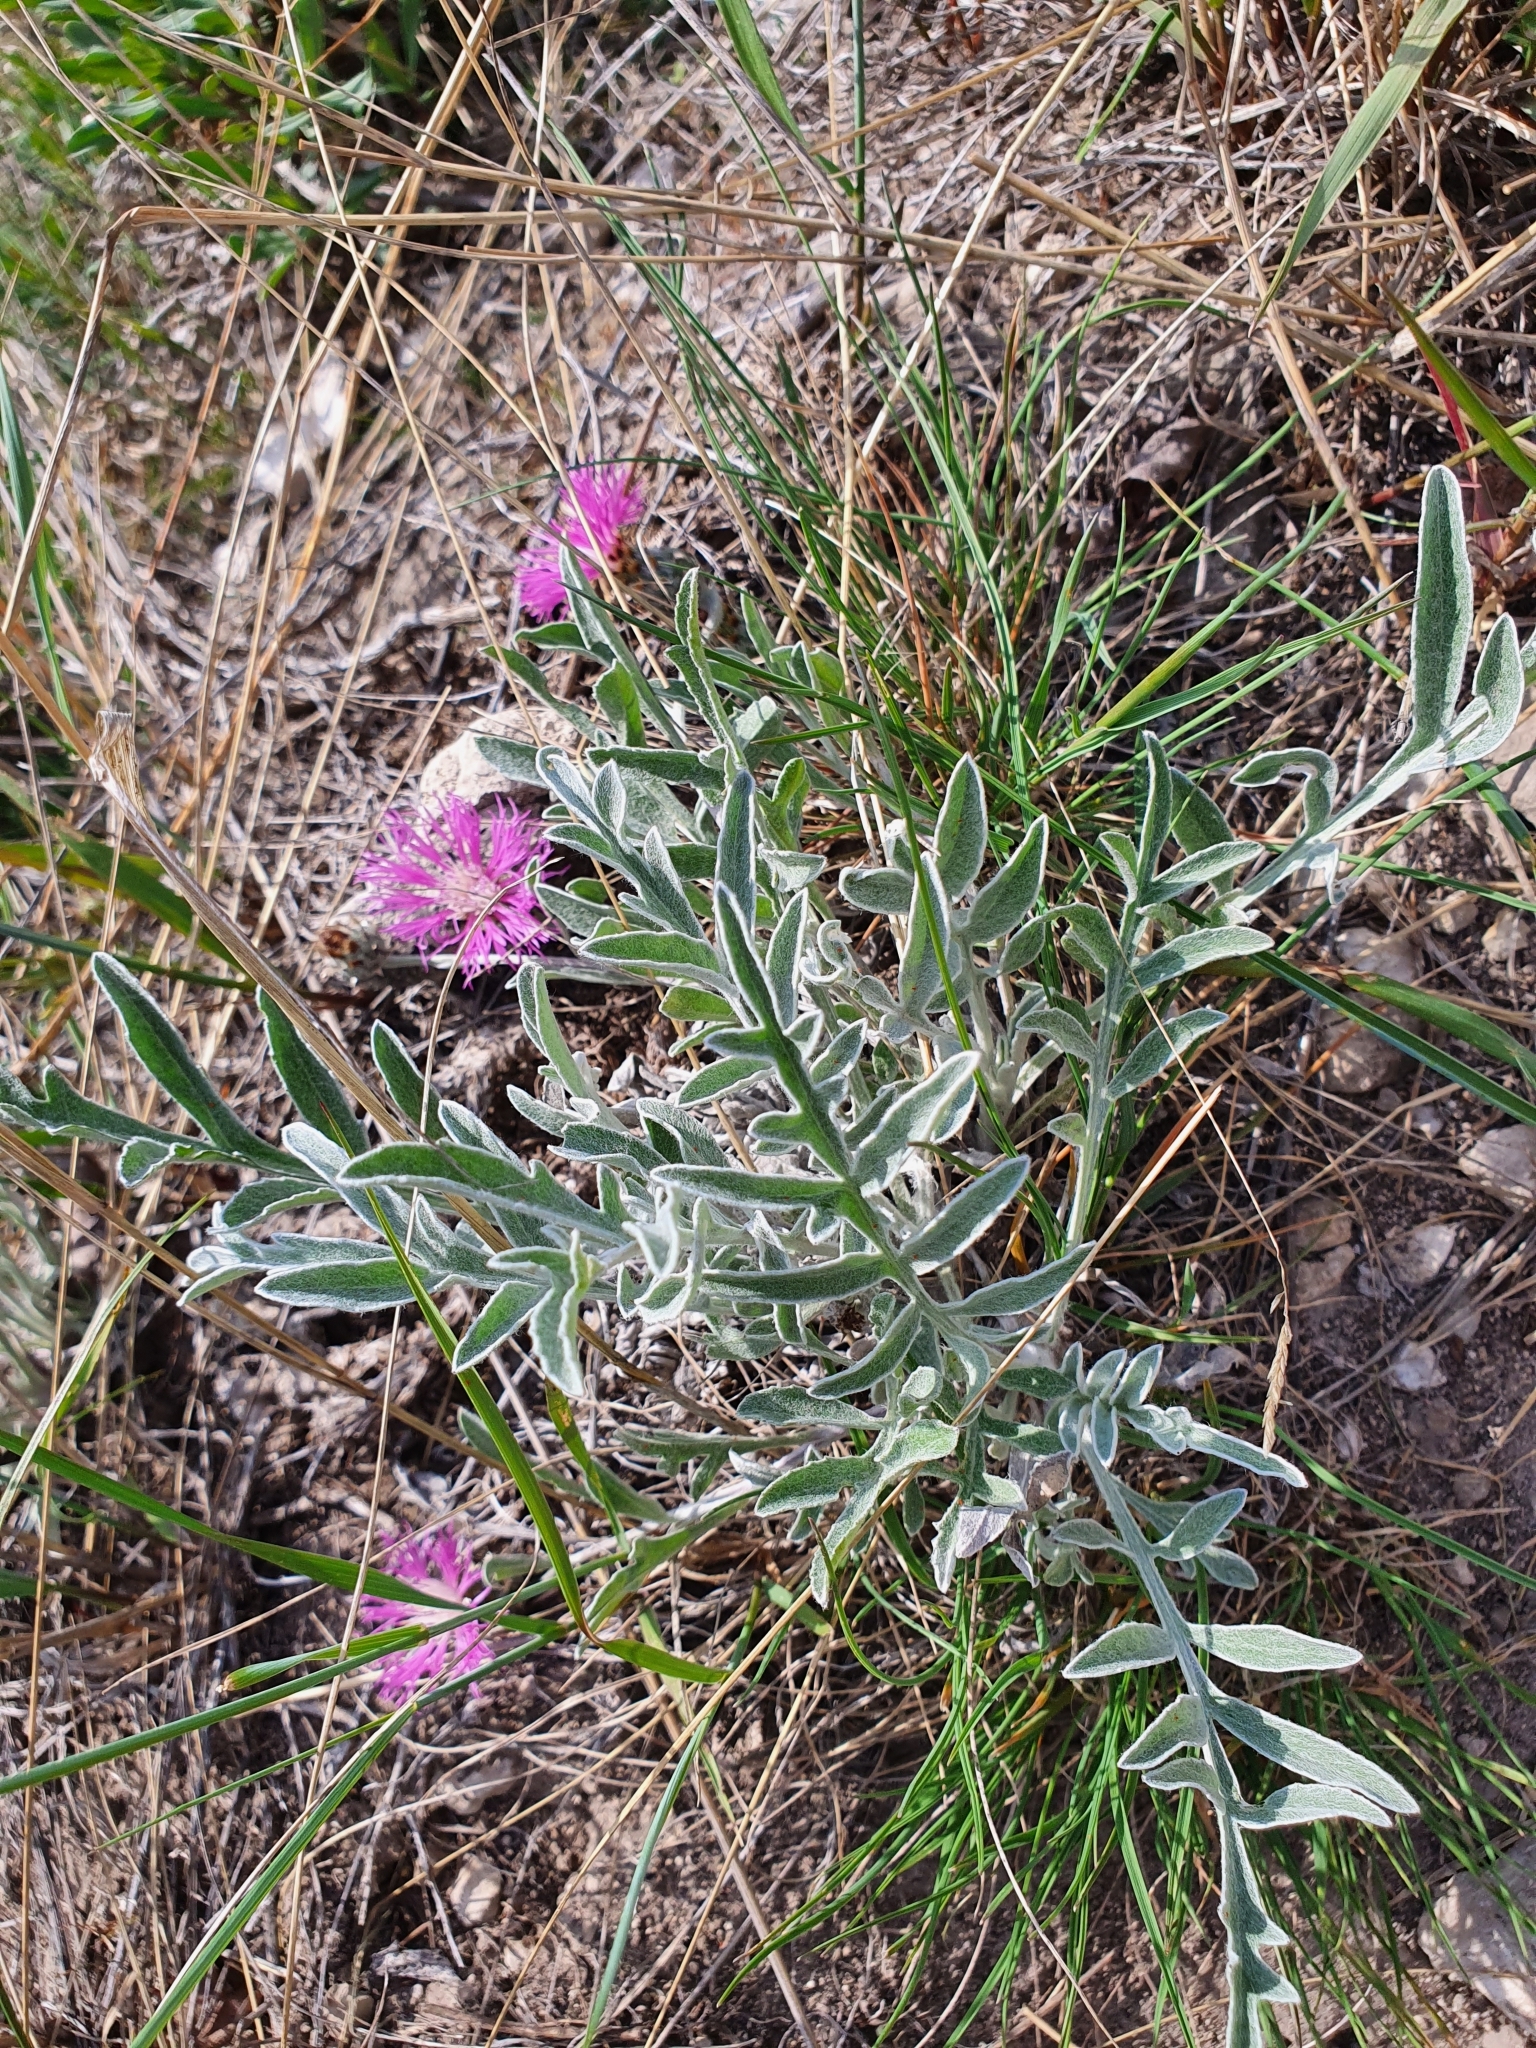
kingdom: Plantae
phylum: Tracheophyta
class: Magnoliopsida
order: Asterales
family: Asteraceae
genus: Psephellus
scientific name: Psephellus marschallianus
